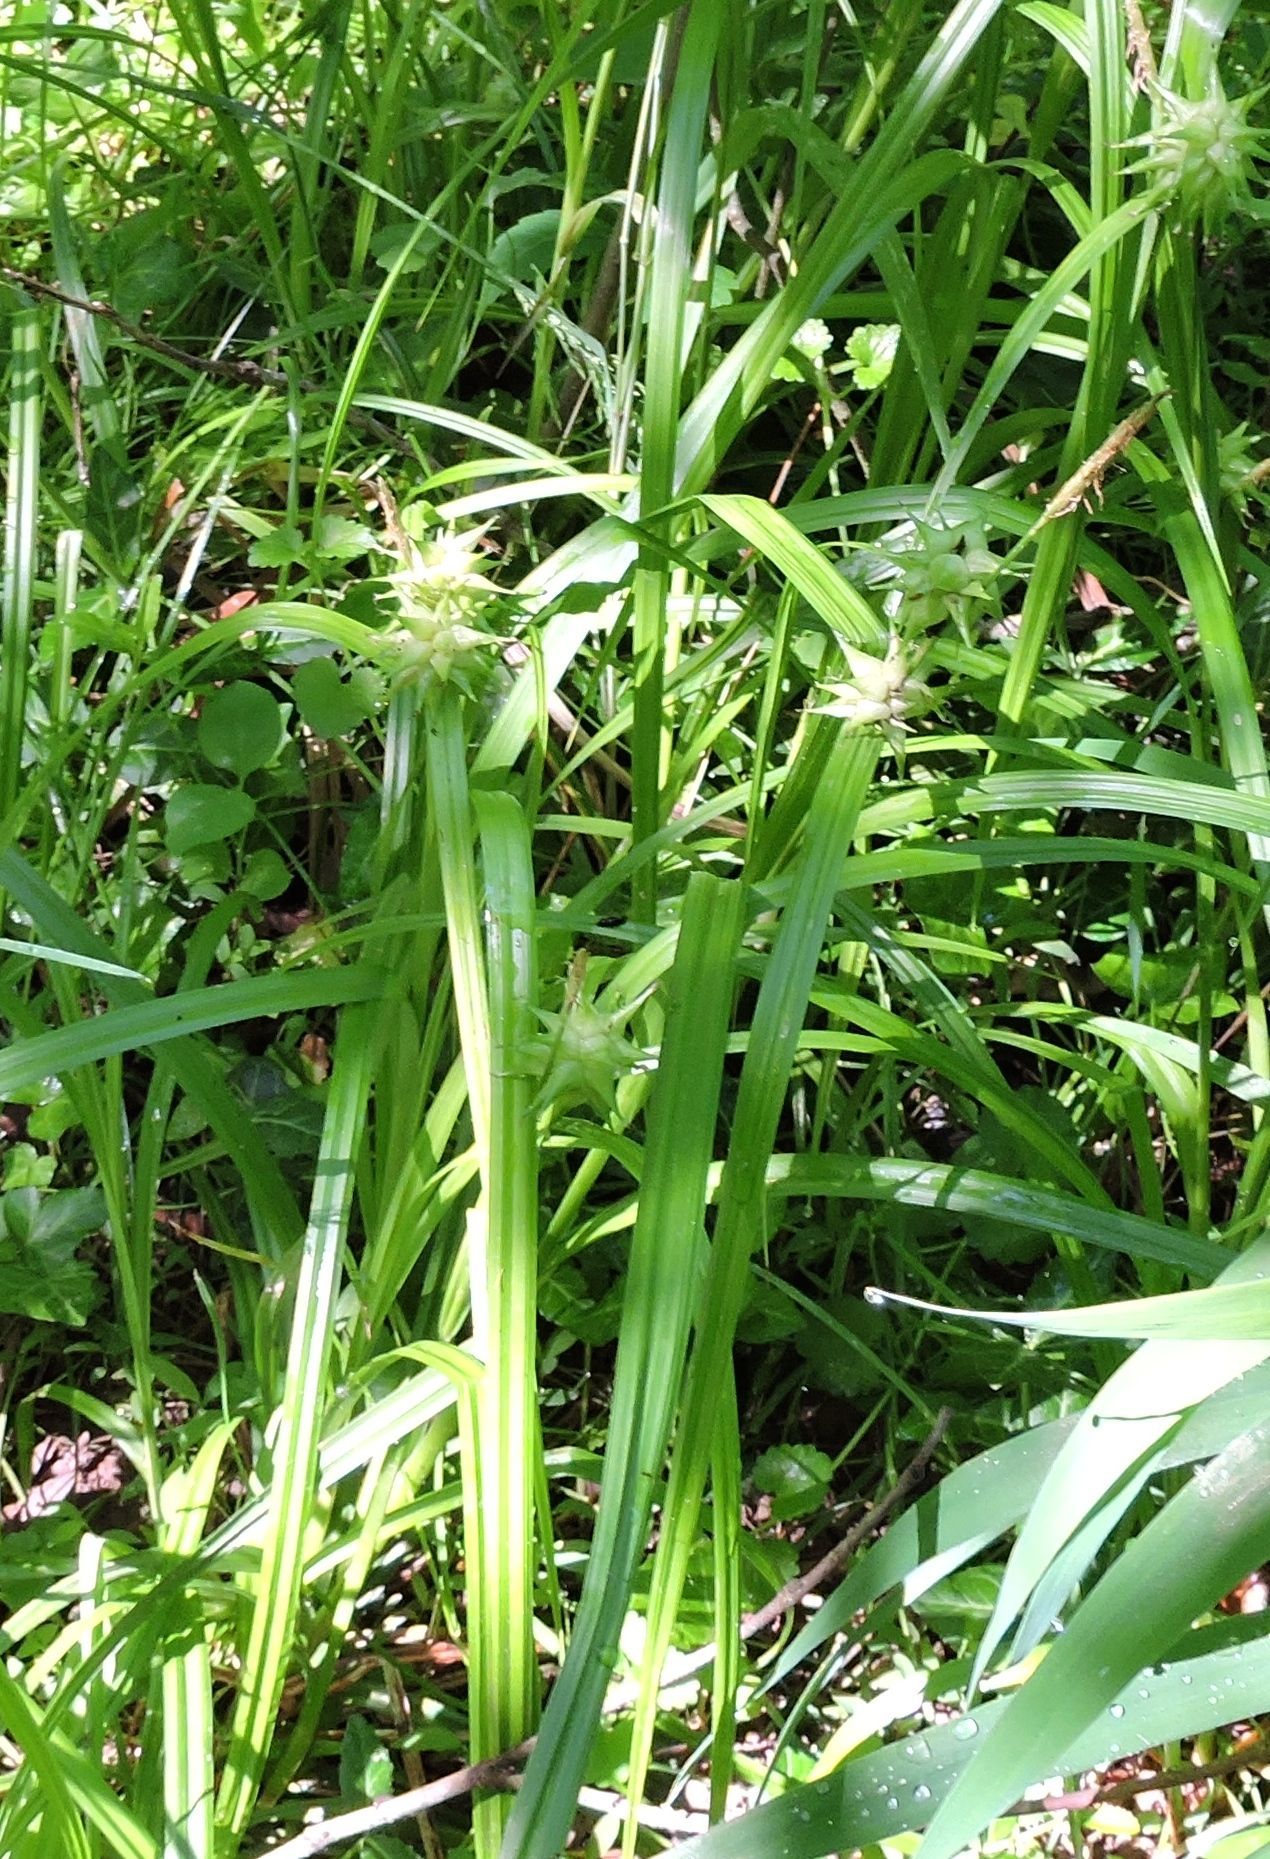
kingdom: Plantae
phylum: Tracheophyta
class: Liliopsida
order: Poales
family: Cyperaceae
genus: Carex
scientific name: Carex grayi
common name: Asa gray's sedge
